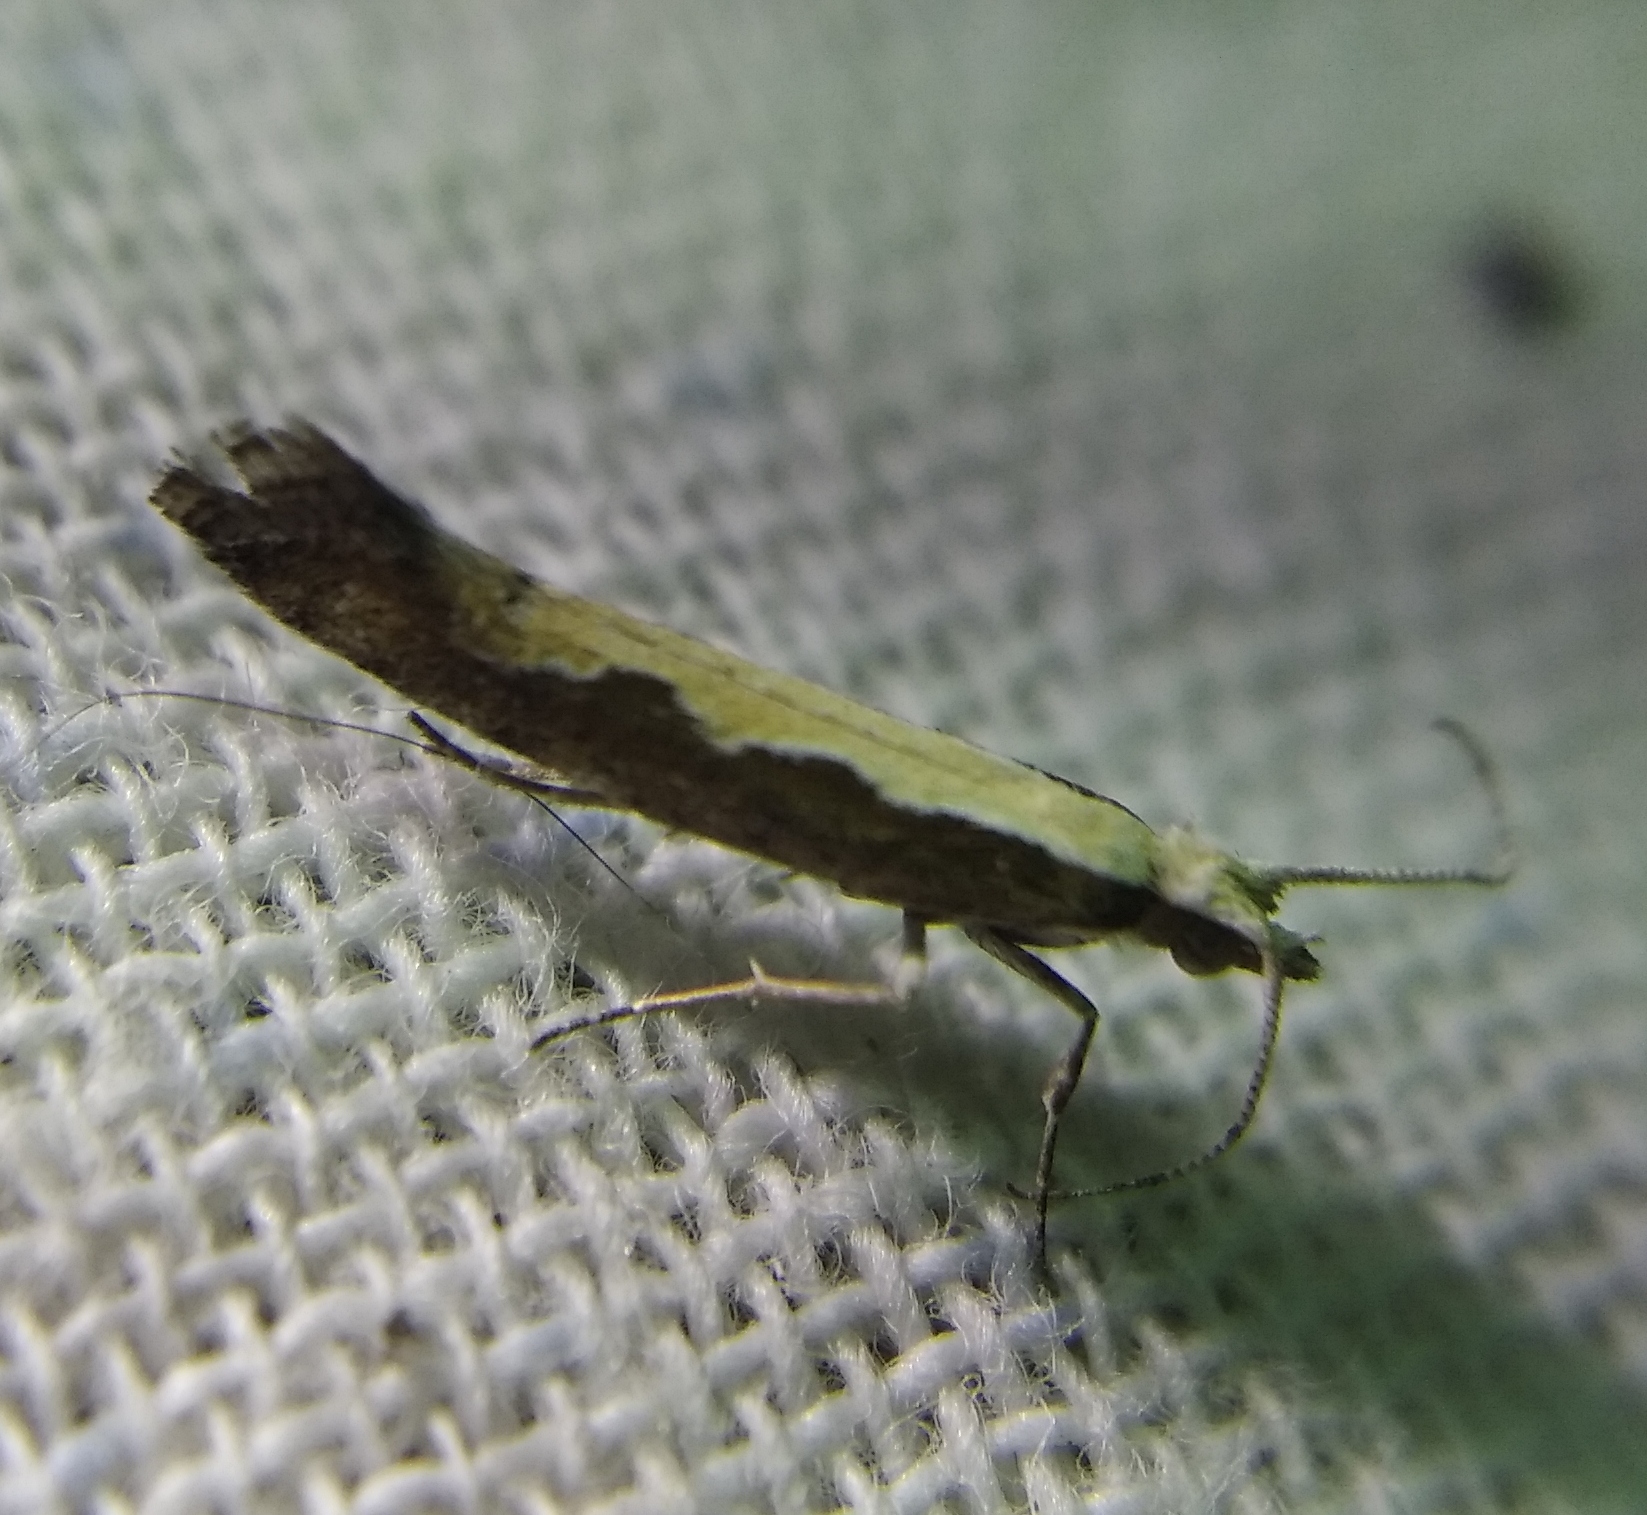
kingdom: Animalia
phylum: Arthropoda
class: Insecta
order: Lepidoptera
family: Plutellidae
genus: Plutella
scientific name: Plutella xylostella
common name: Diamond-back moth
